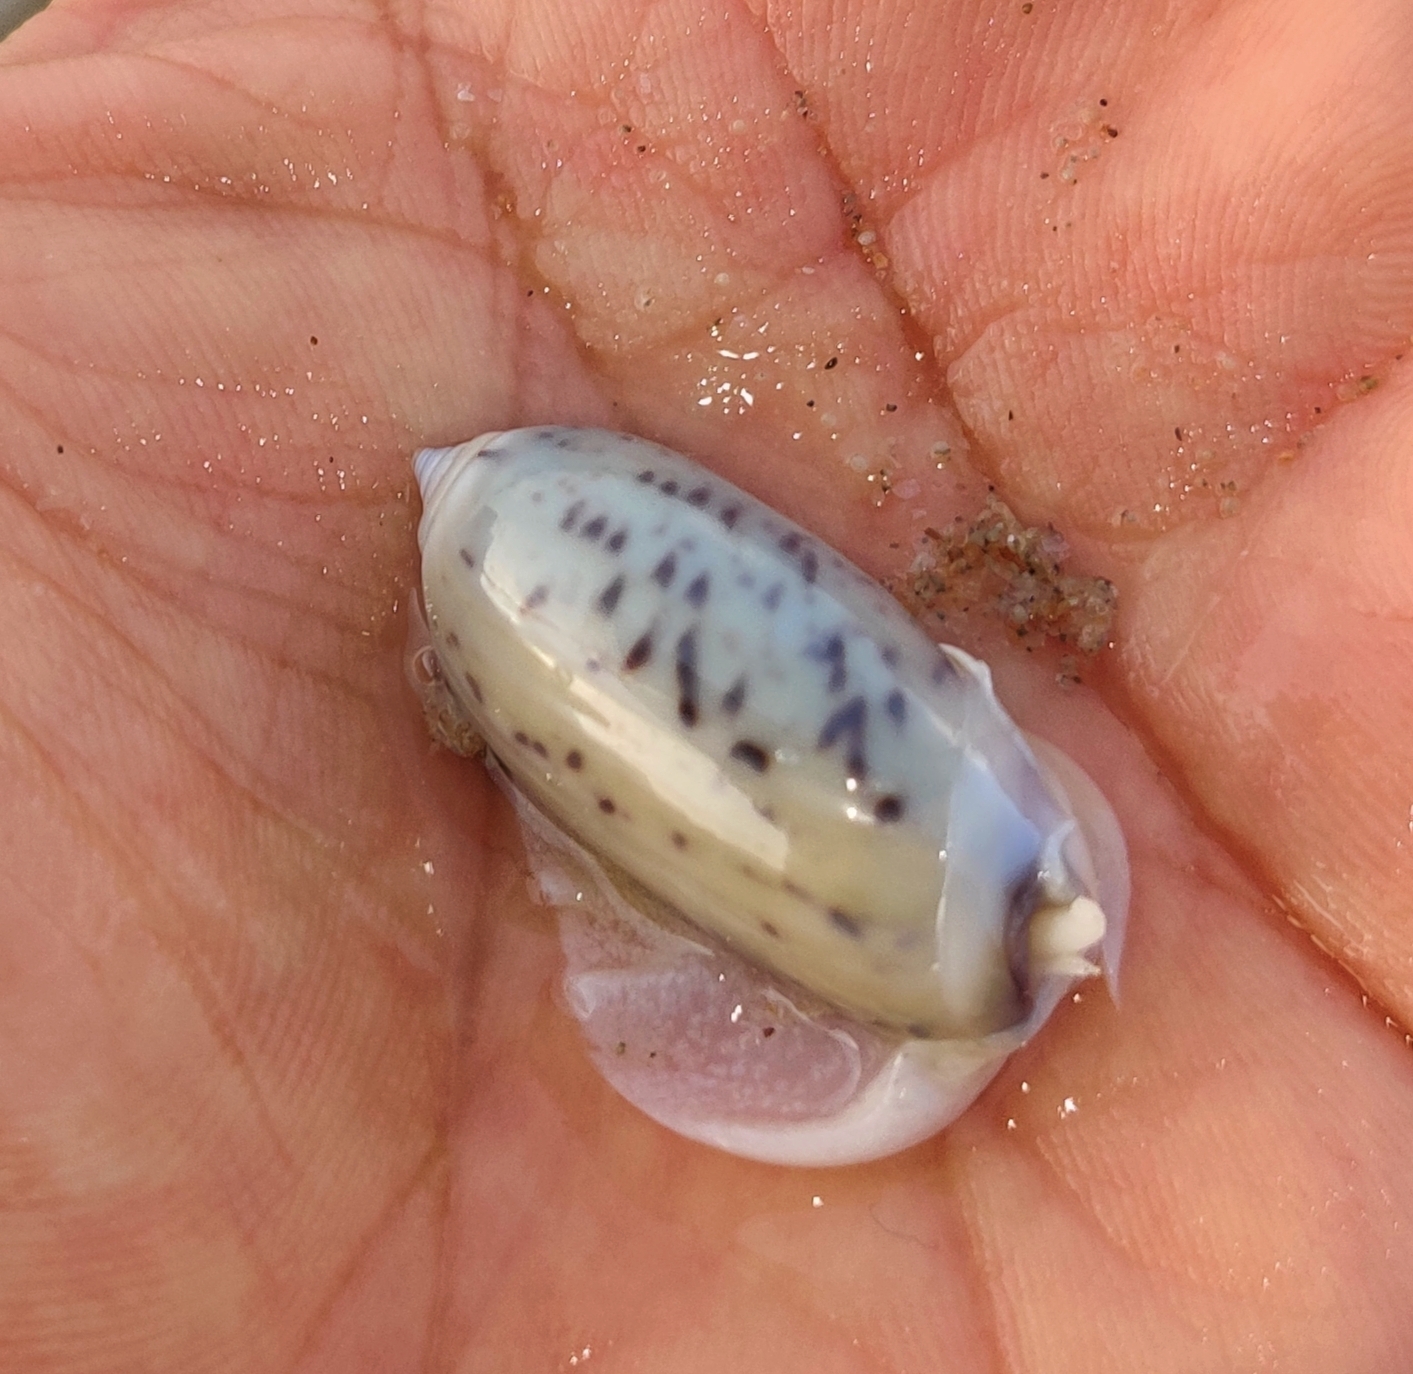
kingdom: Animalia
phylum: Mollusca
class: Gastropoda
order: Neogastropoda
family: Olividae
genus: Oliva
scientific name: Oliva oliva
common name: Common olive
